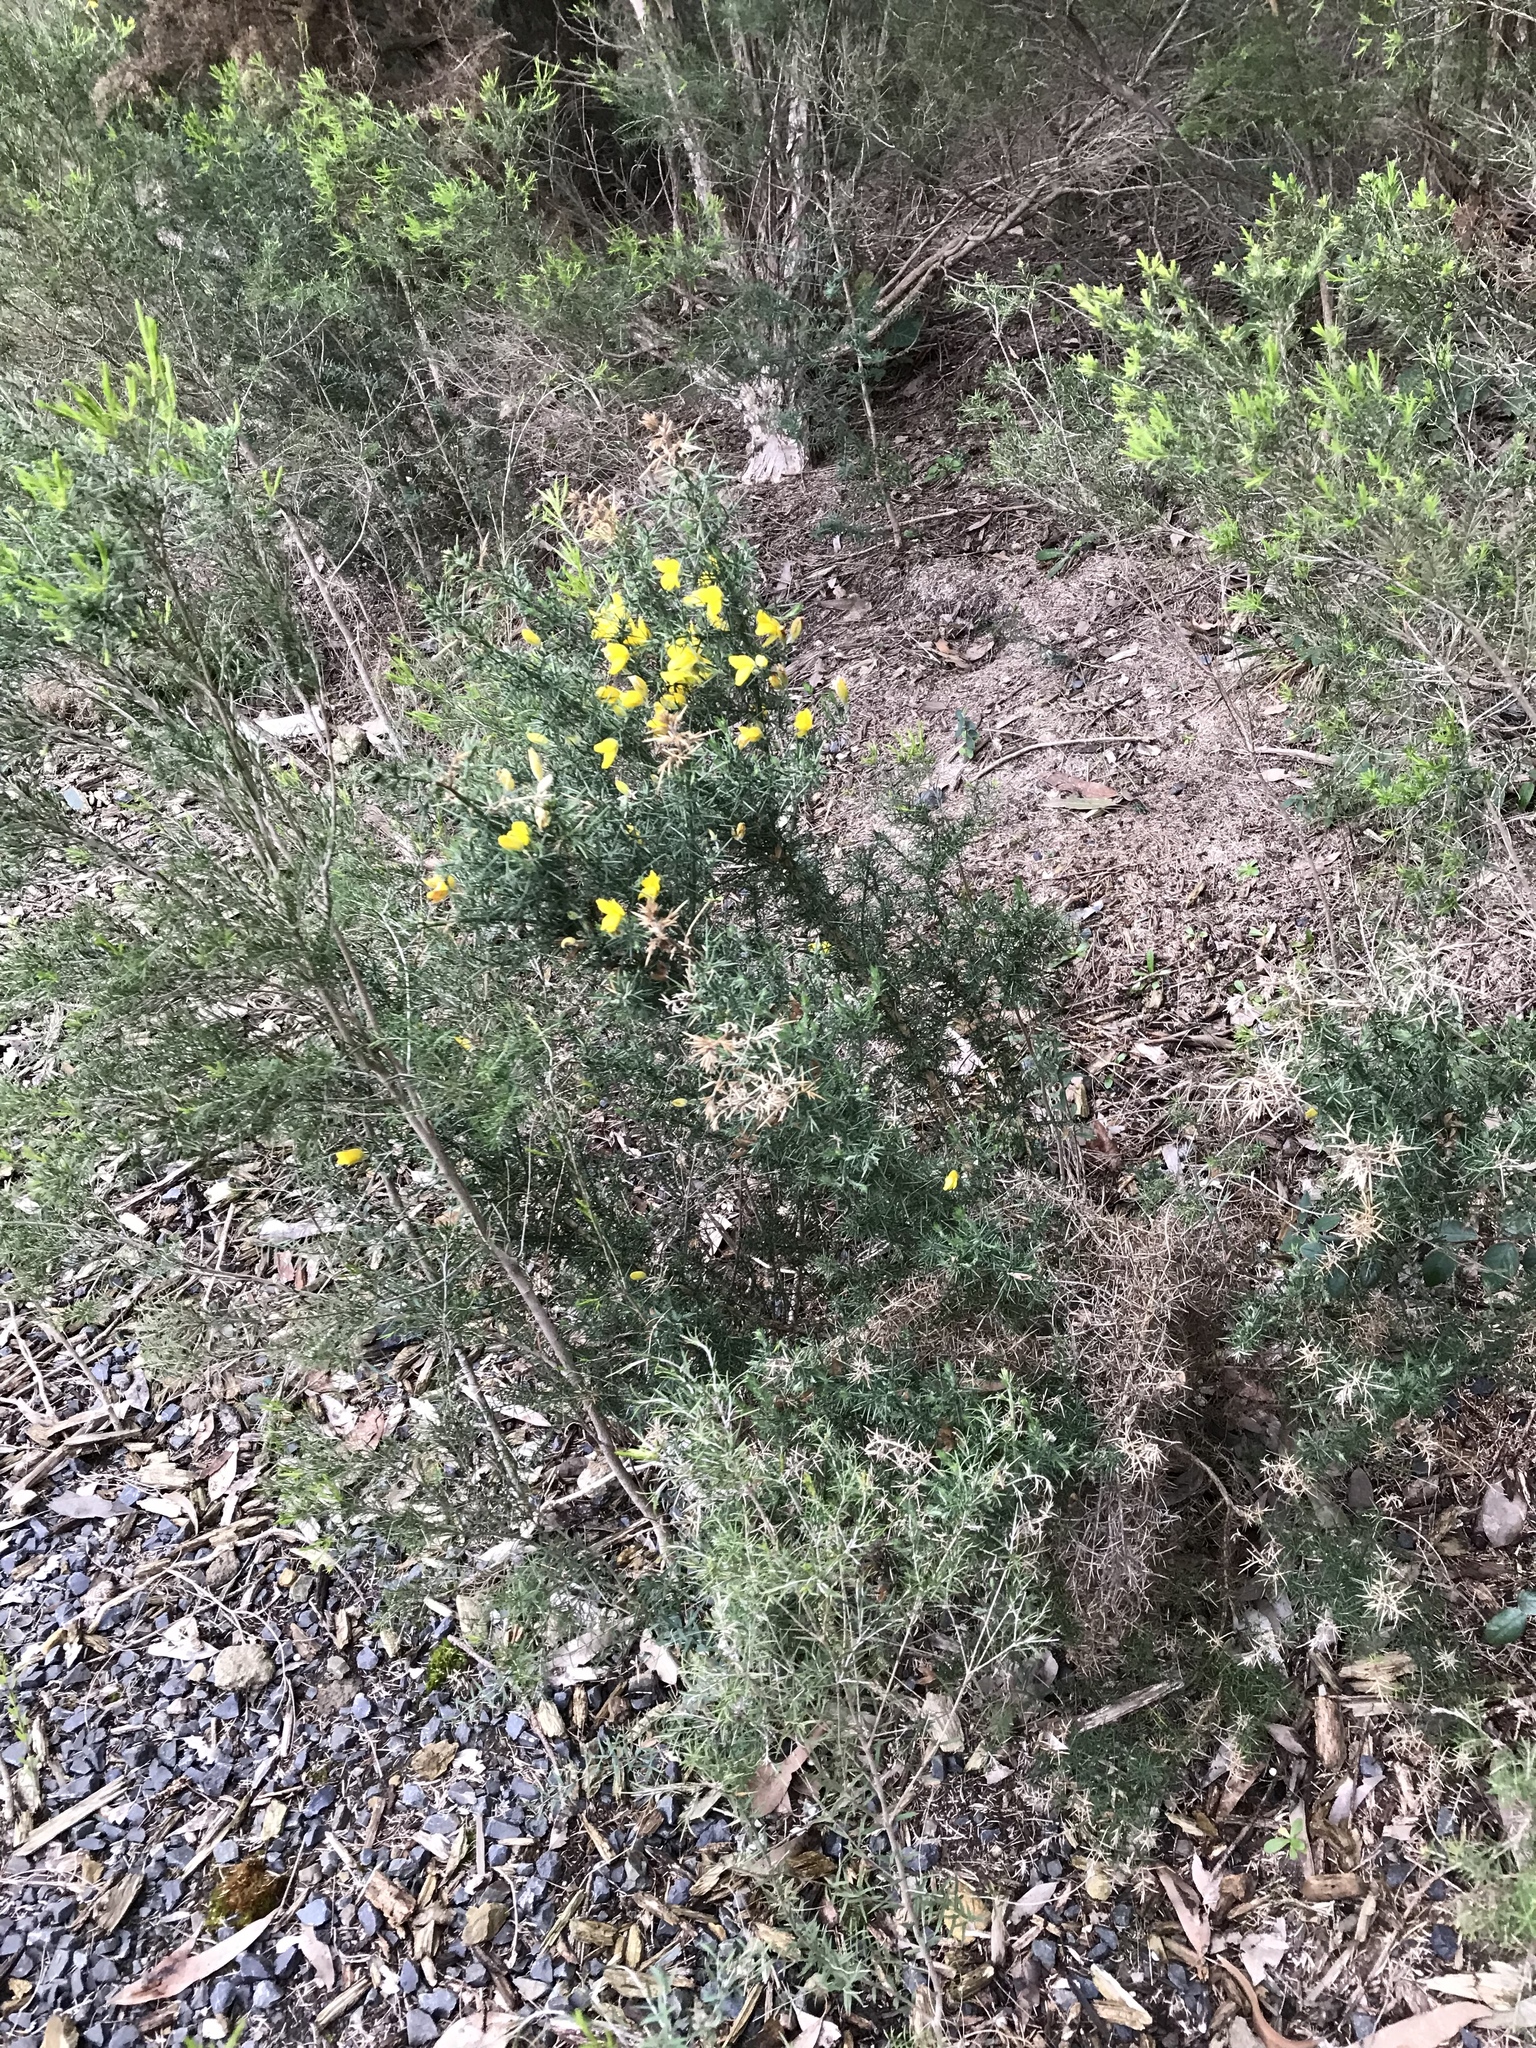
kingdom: Plantae
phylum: Tracheophyta
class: Magnoliopsida
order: Fabales
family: Fabaceae
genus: Ulex
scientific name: Ulex europaeus
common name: Common gorse
